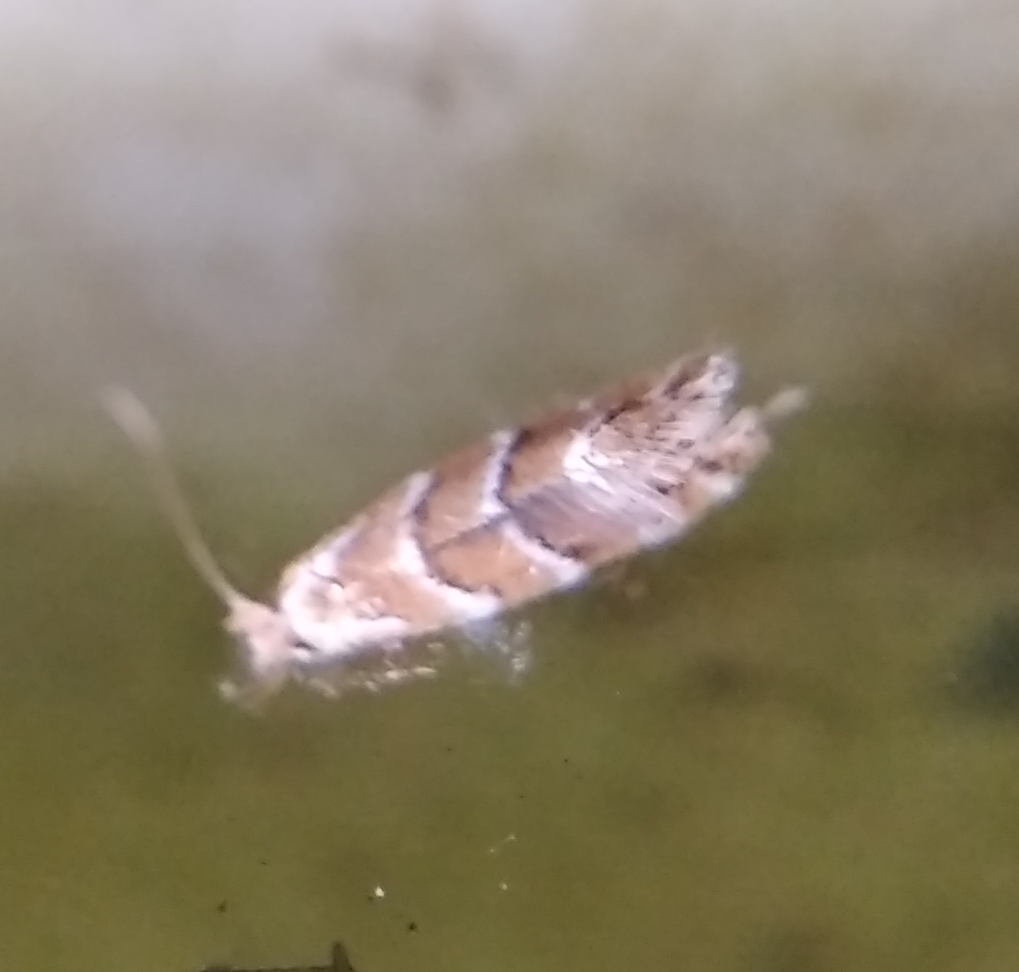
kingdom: Animalia
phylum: Arthropoda
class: Insecta
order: Lepidoptera
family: Gracillariidae
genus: Cameraria
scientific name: Cameraria ohridella
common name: Horse-chestnut leaf-miner
